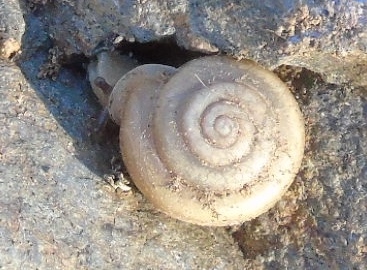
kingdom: Animalia
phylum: Mollusca
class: Gastropoda
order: Stylommatophora
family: Polygyridae
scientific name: Polygyridae
